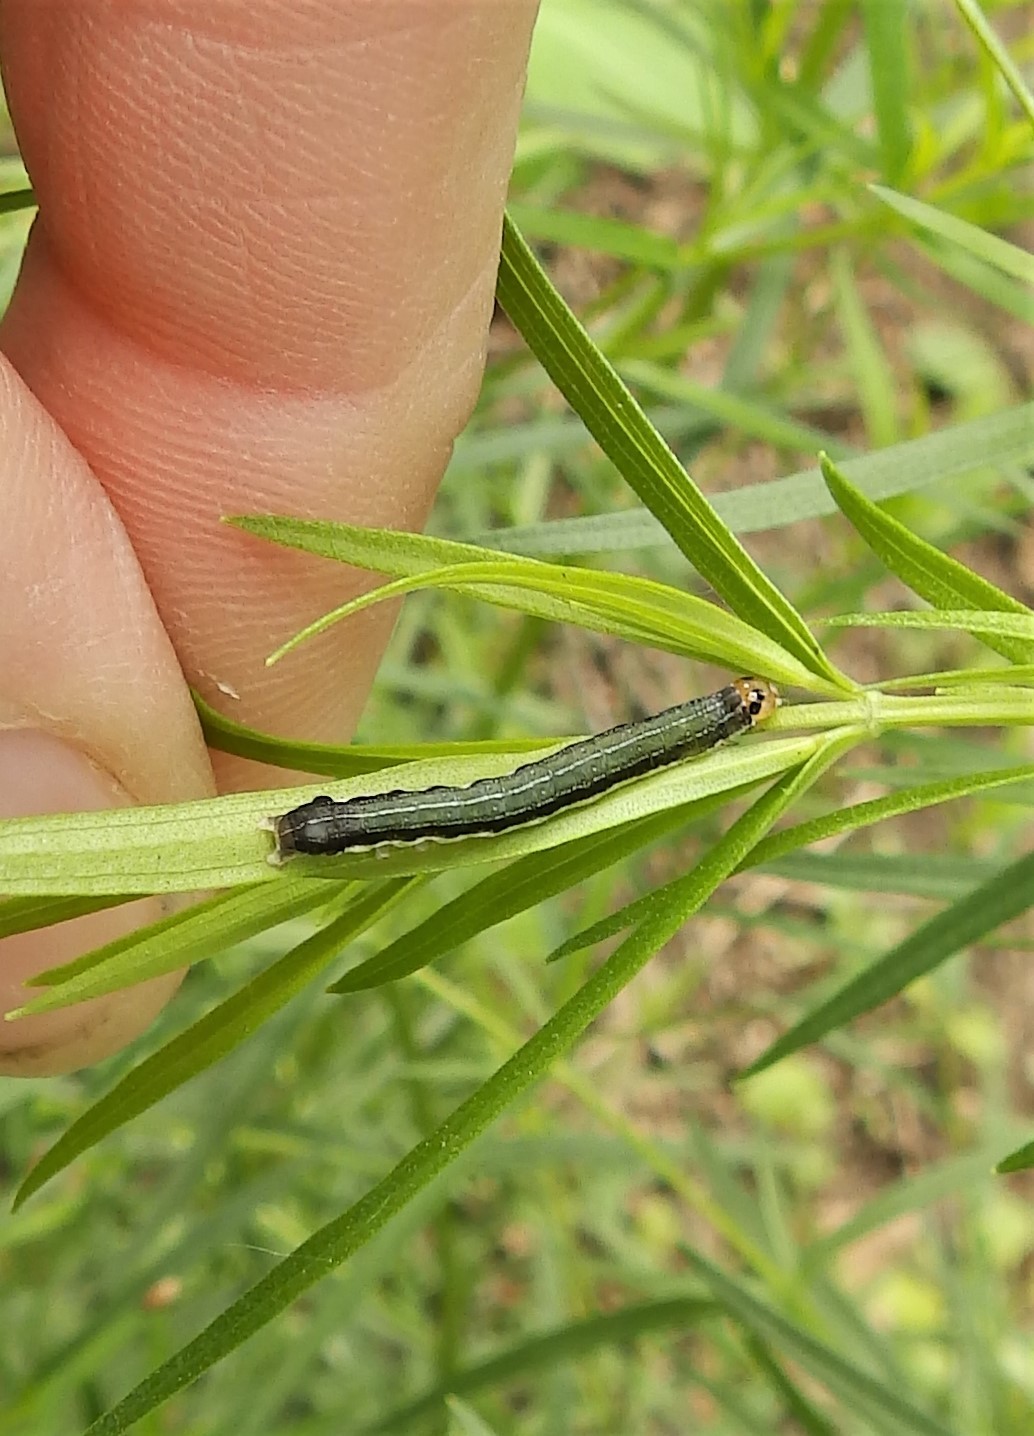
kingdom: Animalia
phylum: Arthropoda
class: Insecta
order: Lepidoptera
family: Noctuidae
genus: Crocigrapha
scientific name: Crocigrapha normani
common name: Norman's quaker
